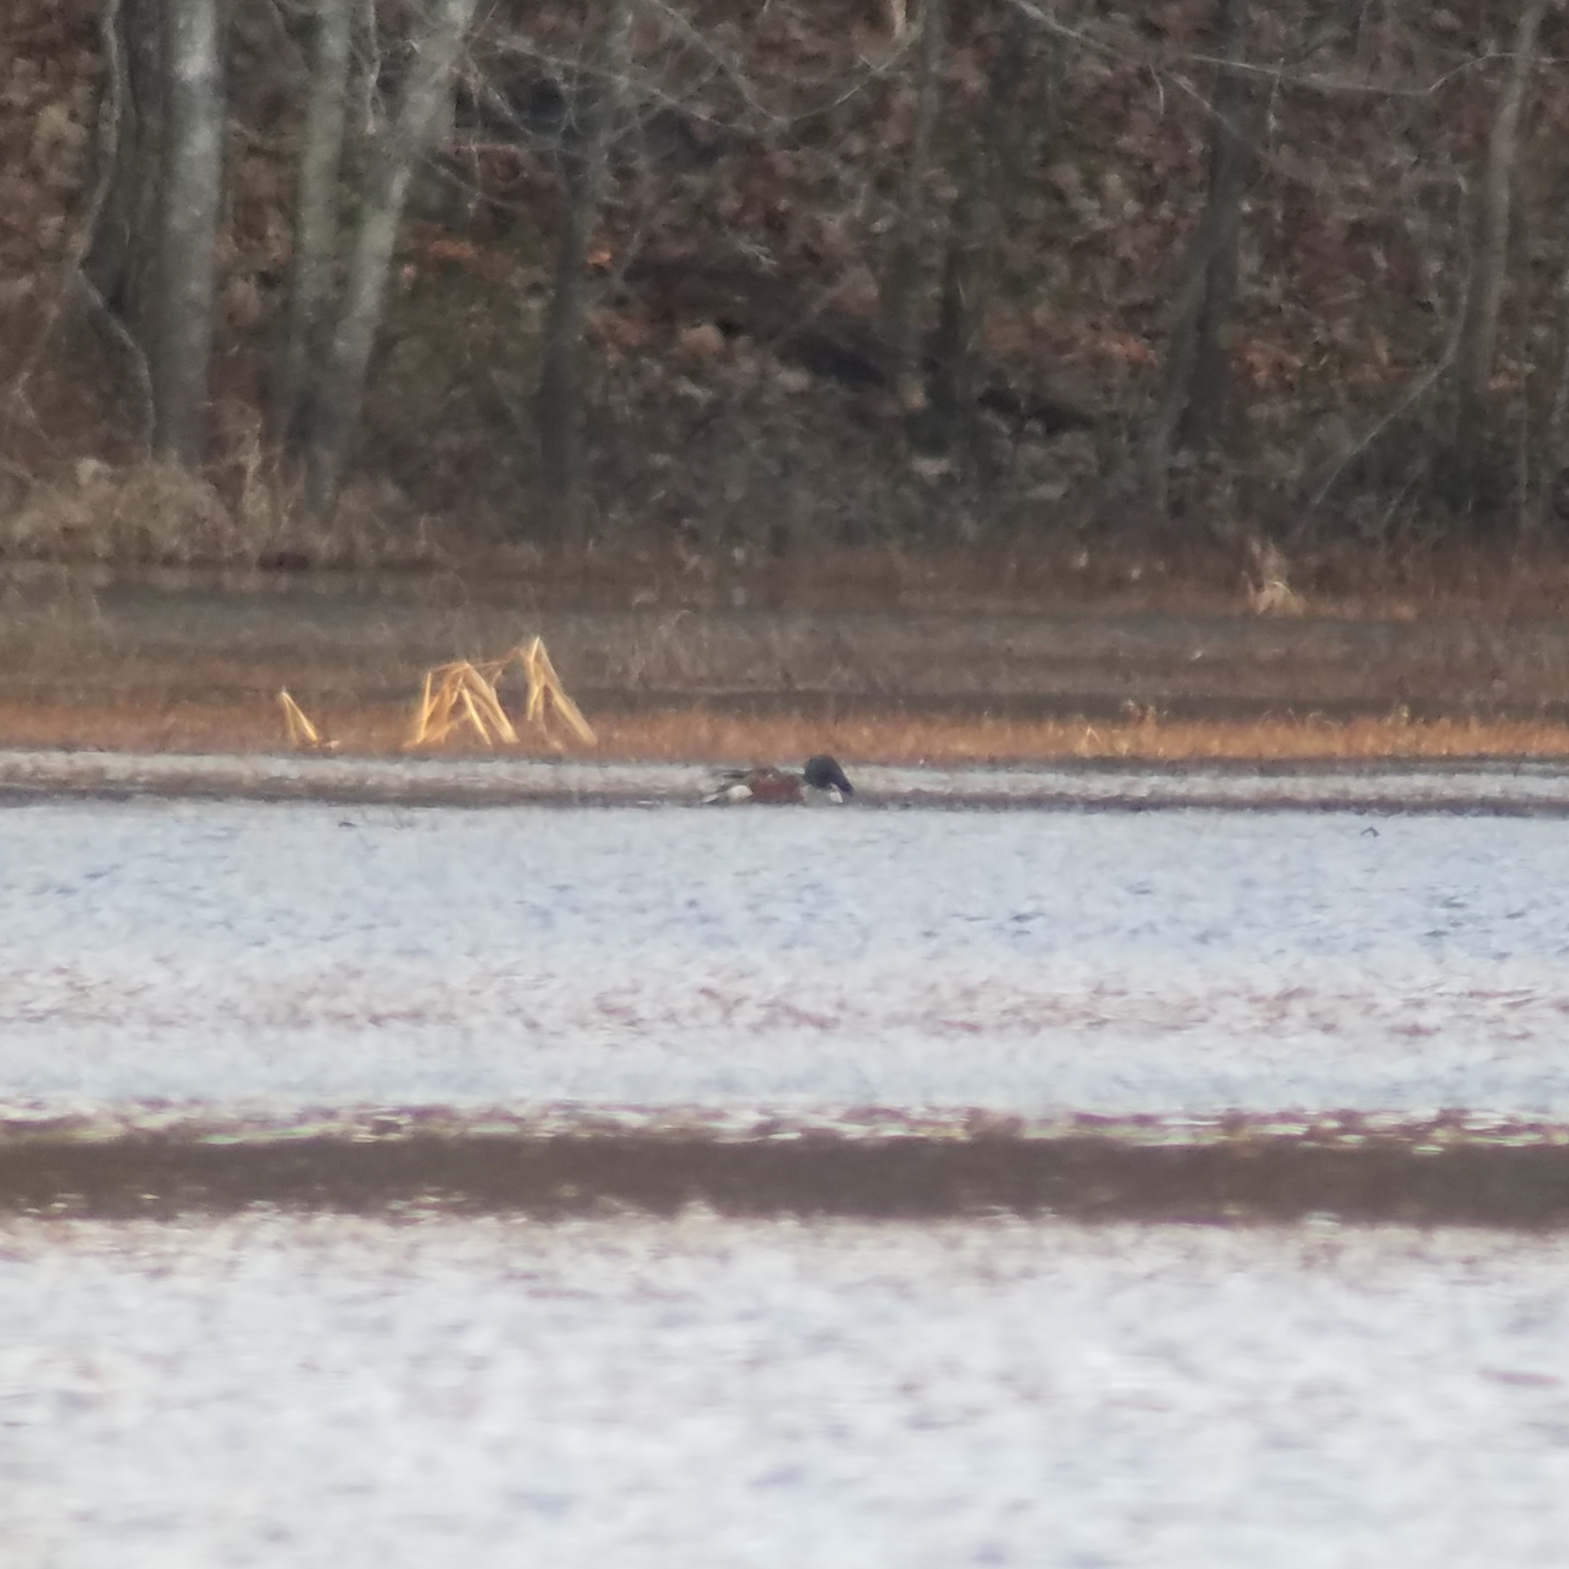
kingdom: Animalia
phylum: Chordata
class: Aves
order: Anseriformes
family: Anatidae
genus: Spatula
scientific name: Spatula clypeata
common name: Northern shoveler
